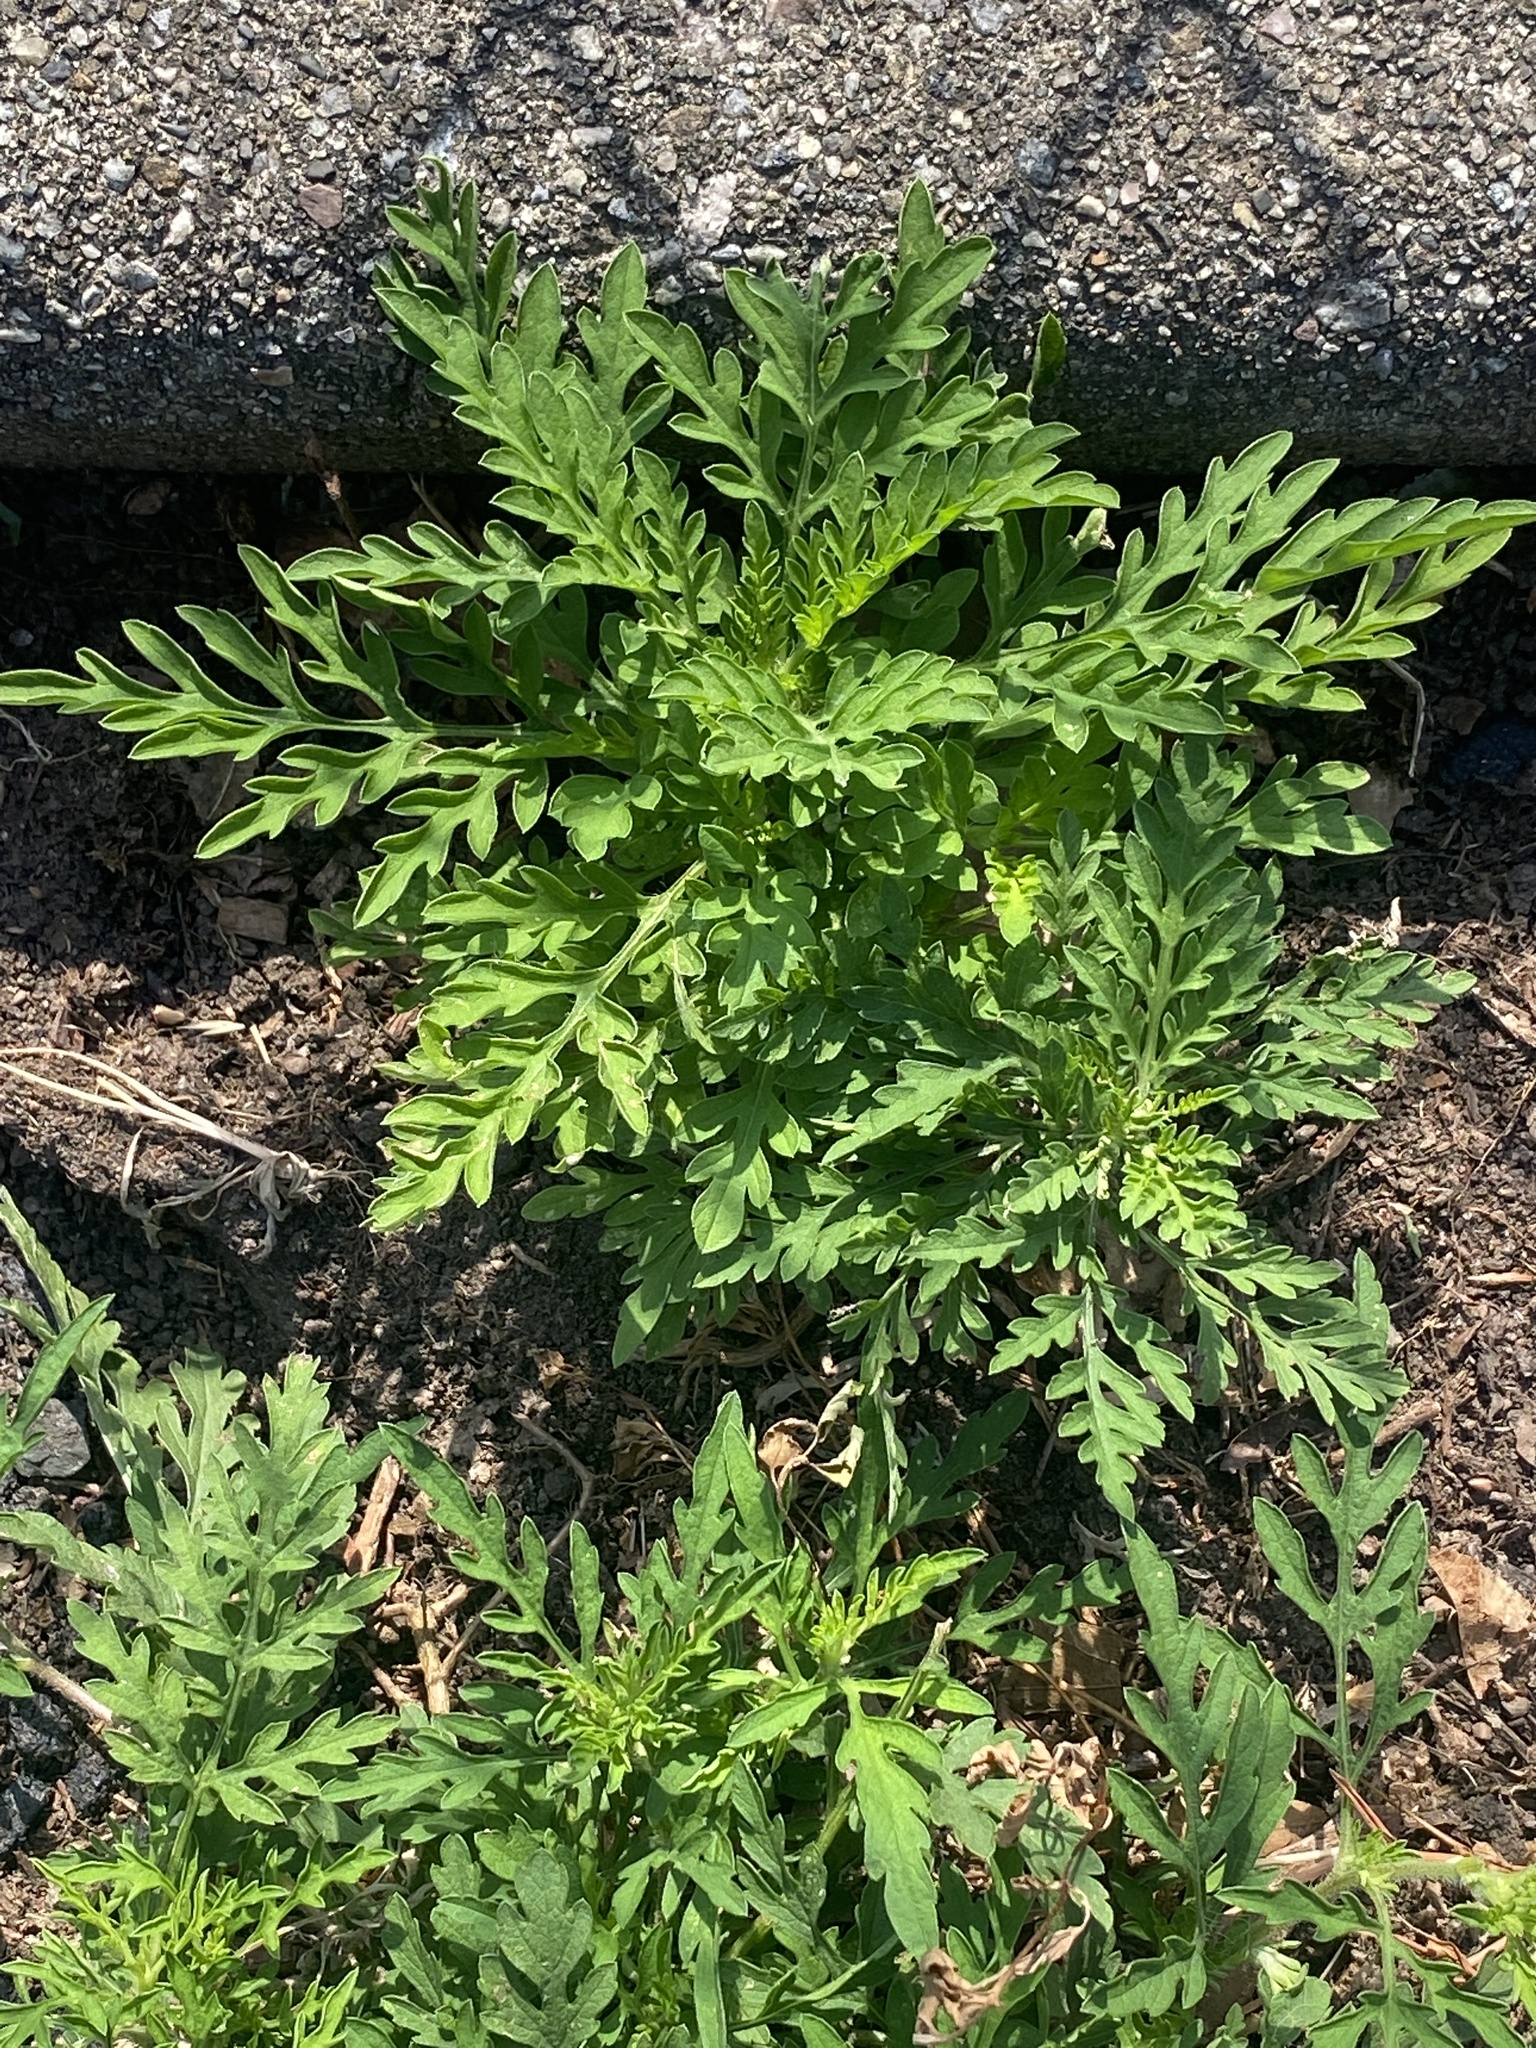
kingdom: Plantae
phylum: Tracheophyta
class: Magnoliopsida
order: Asterales
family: Asteraceae
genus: Ambrosia
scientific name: Ambrosia artemisiifolia
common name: Annual ragweed
